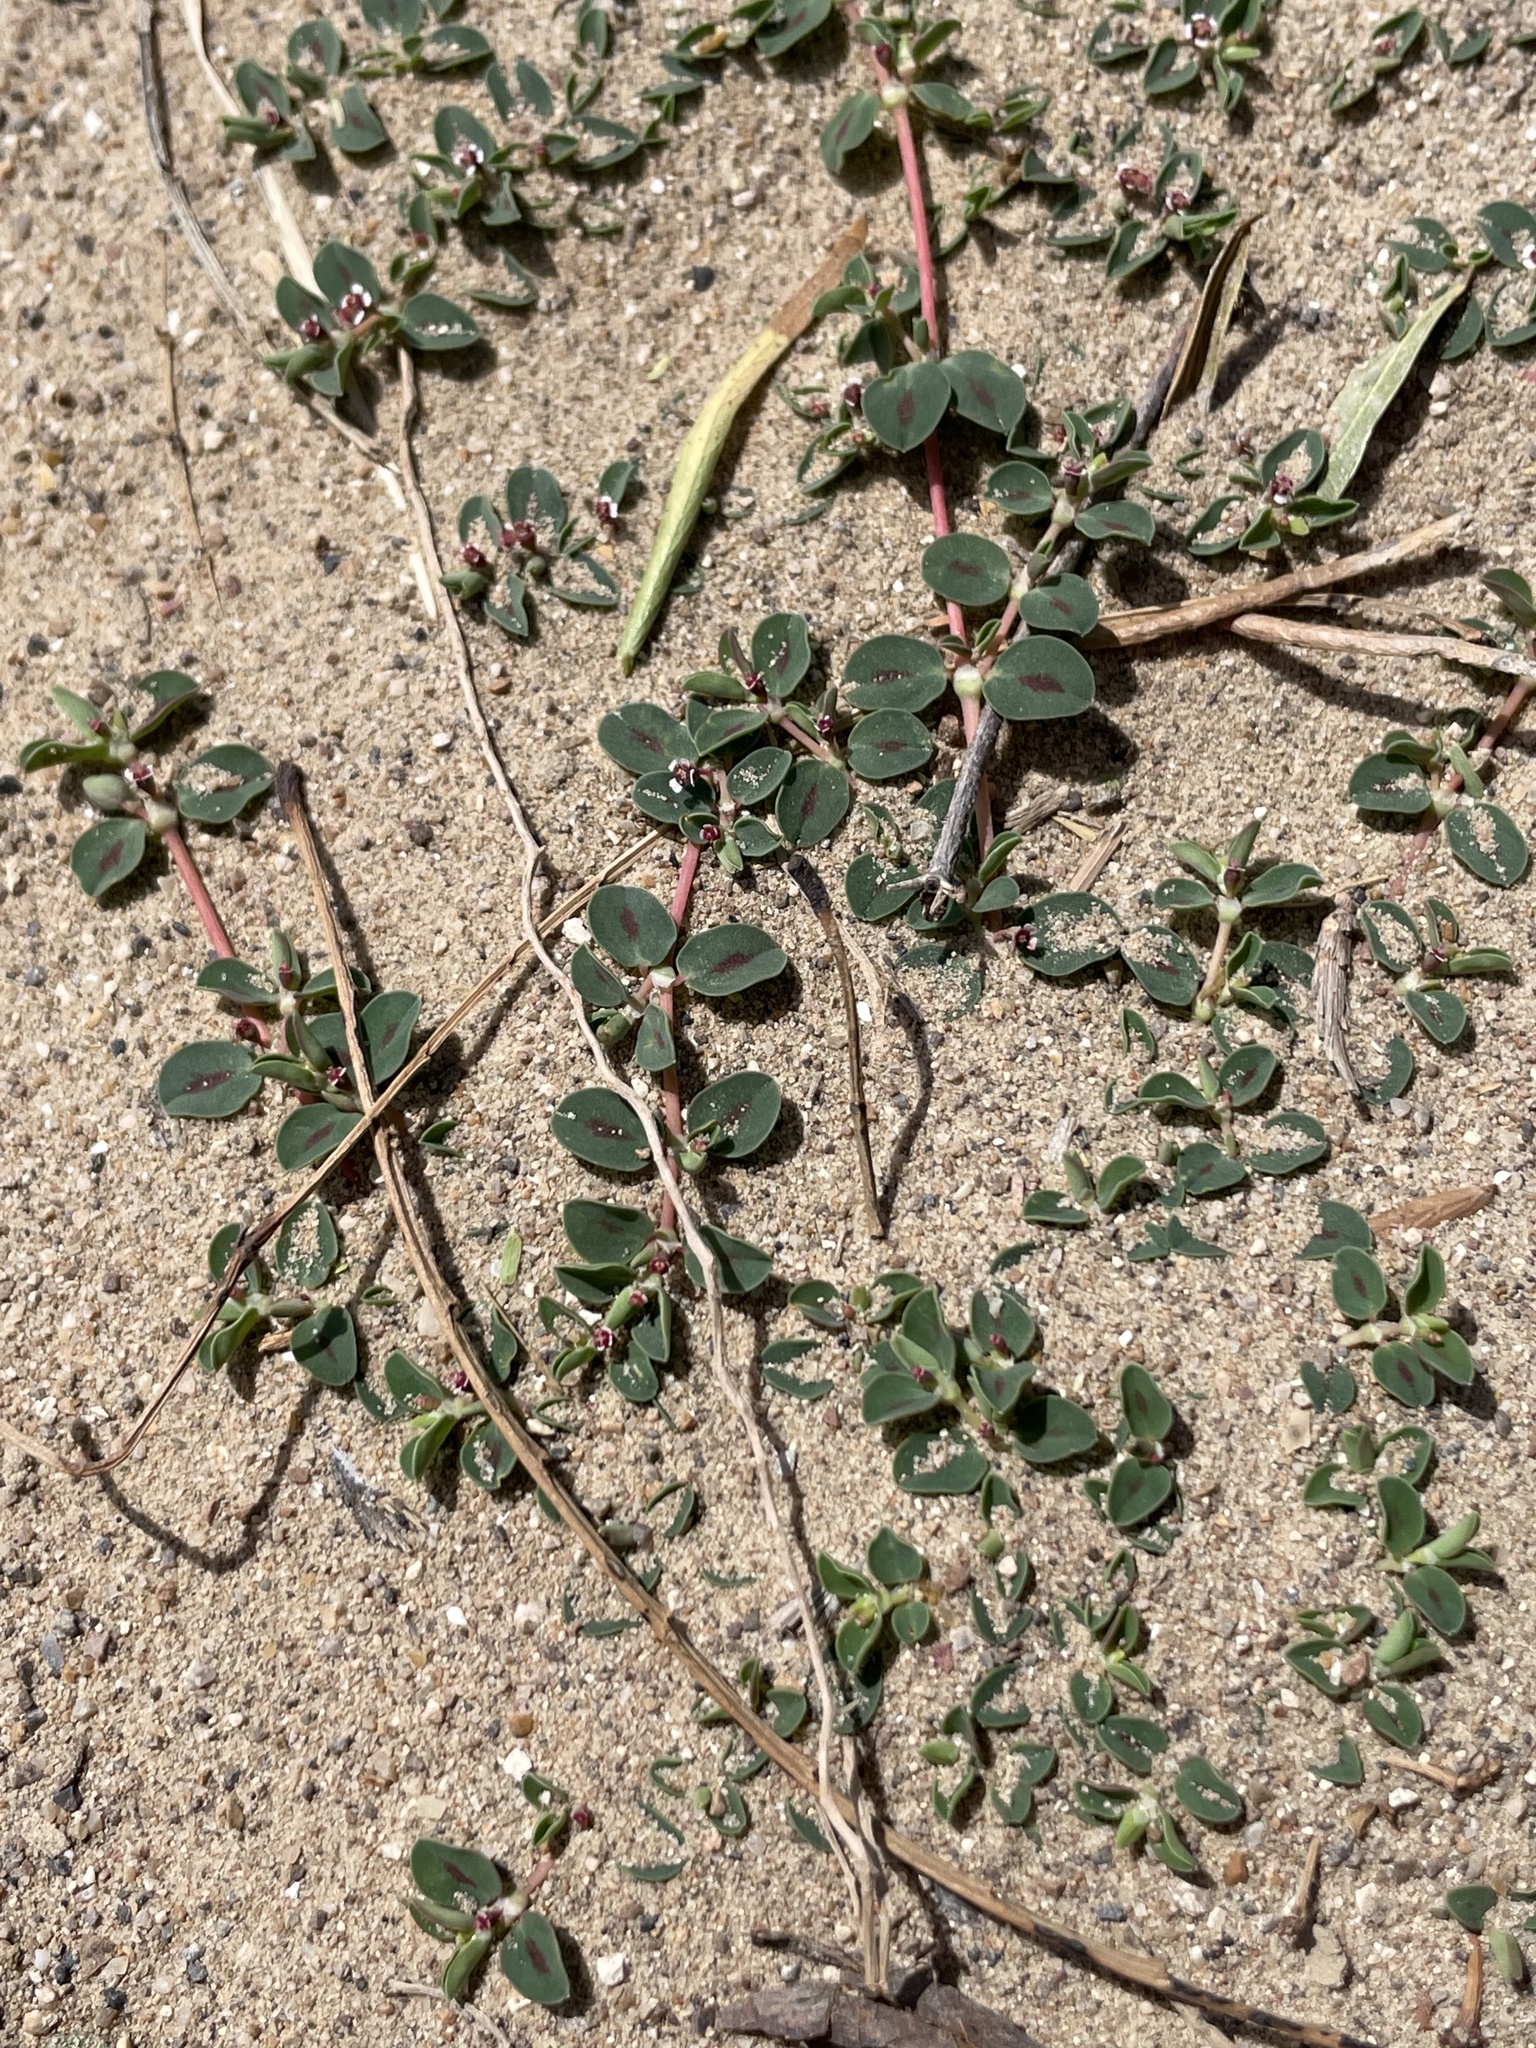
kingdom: Plantae
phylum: Tracheophyta
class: Magnoliopsida
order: Malpighiales
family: Euphorbiaceae
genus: Euphorbia
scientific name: Euphorbia albomarginata
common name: Whitemargin sandmat
